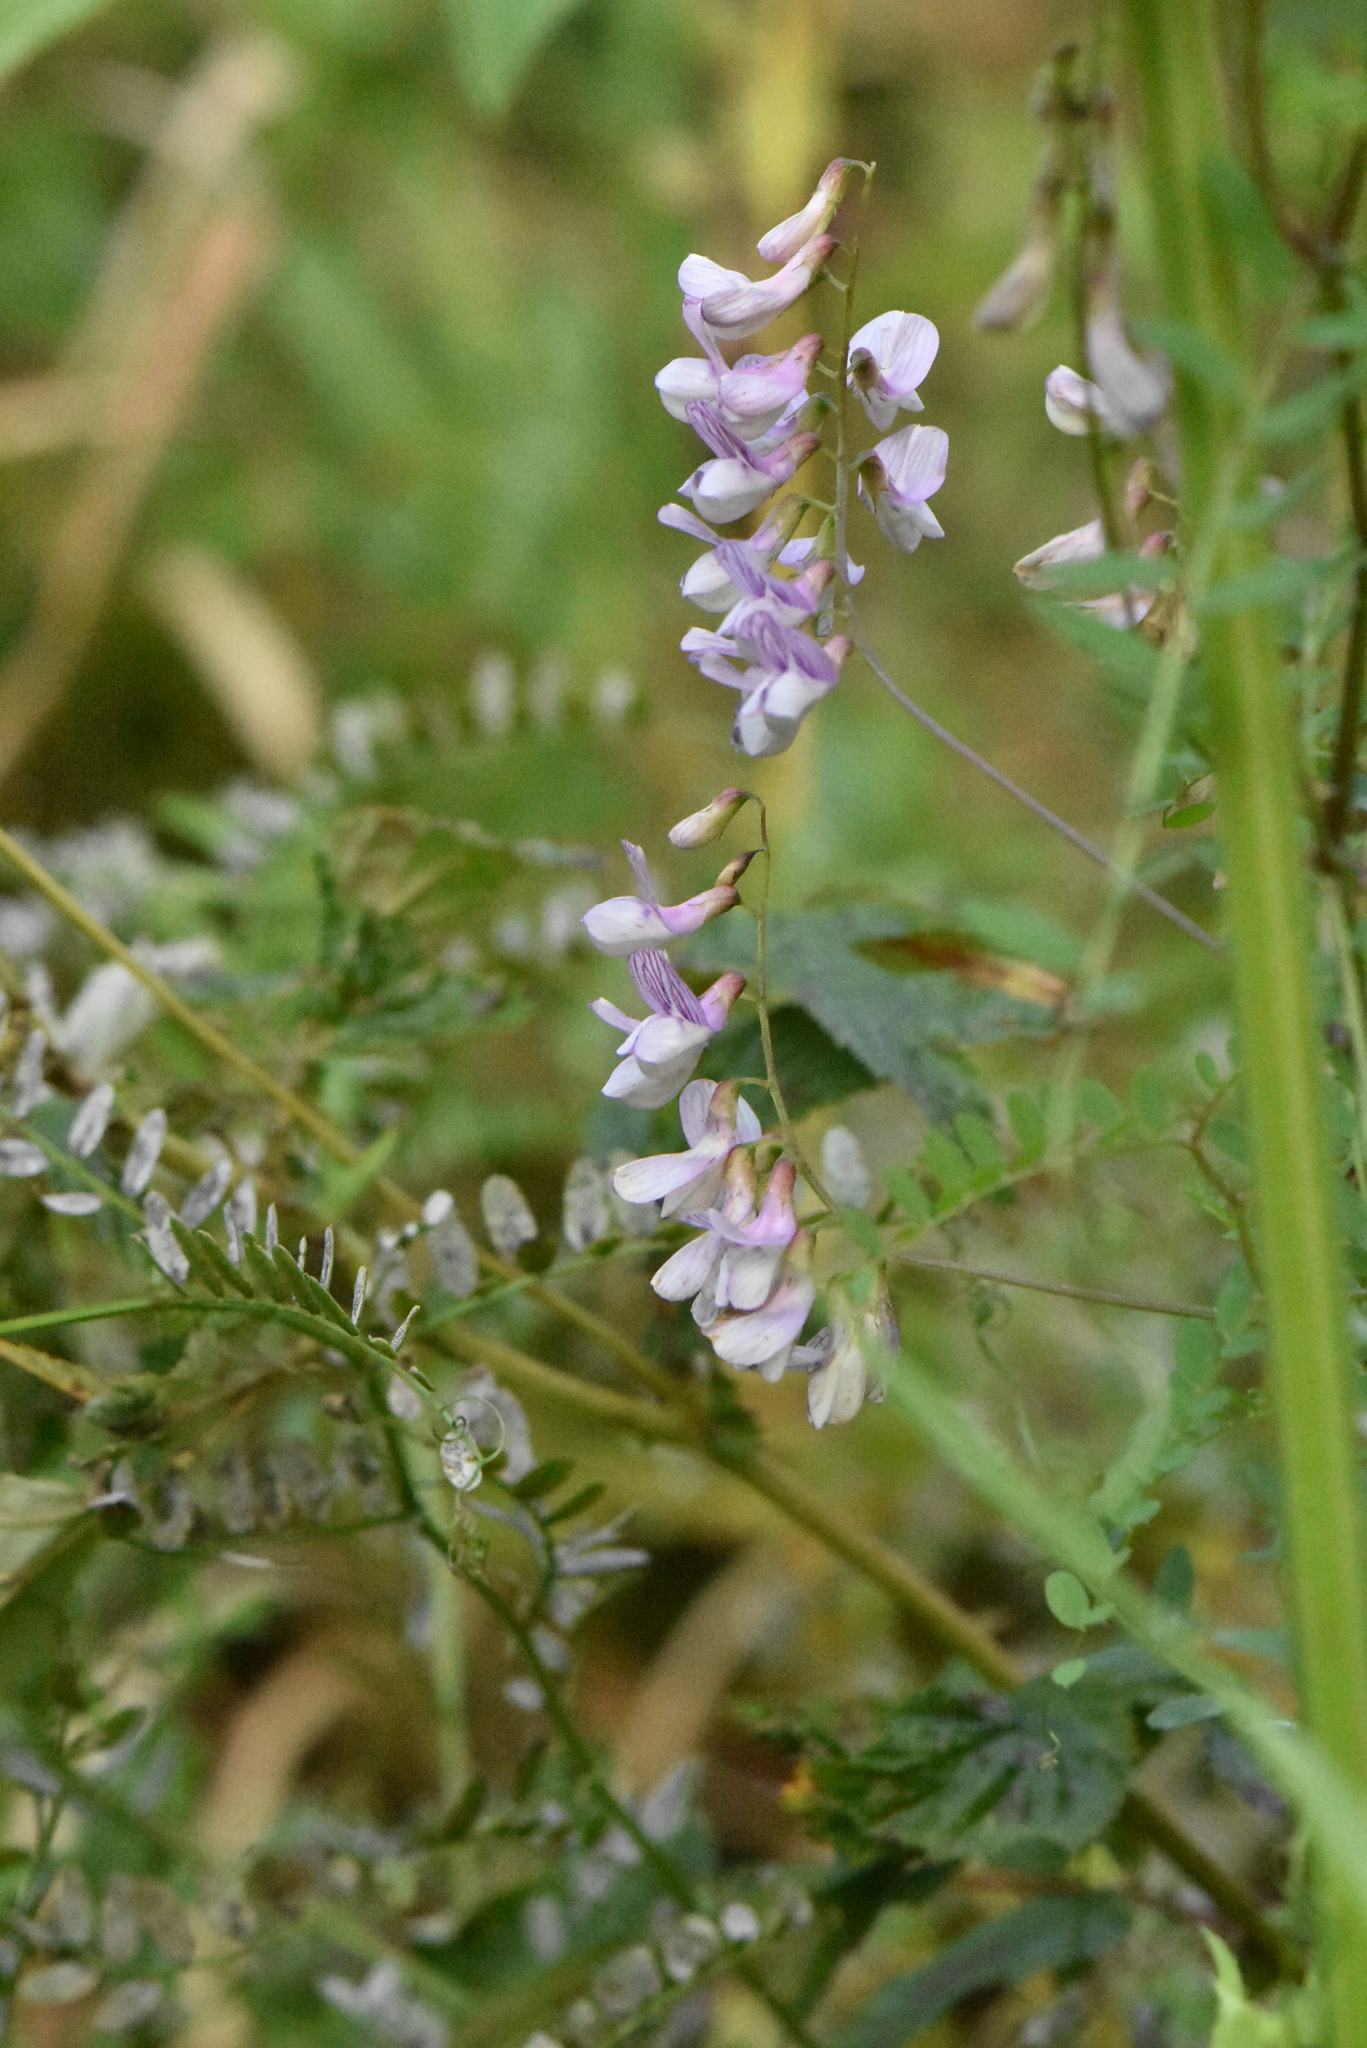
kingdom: Plantae
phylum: Tracheophyta
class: Magnoliopsida
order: Fabales
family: Fabaceae
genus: Vicia
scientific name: Vicia sylvatica
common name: Wood vetch
